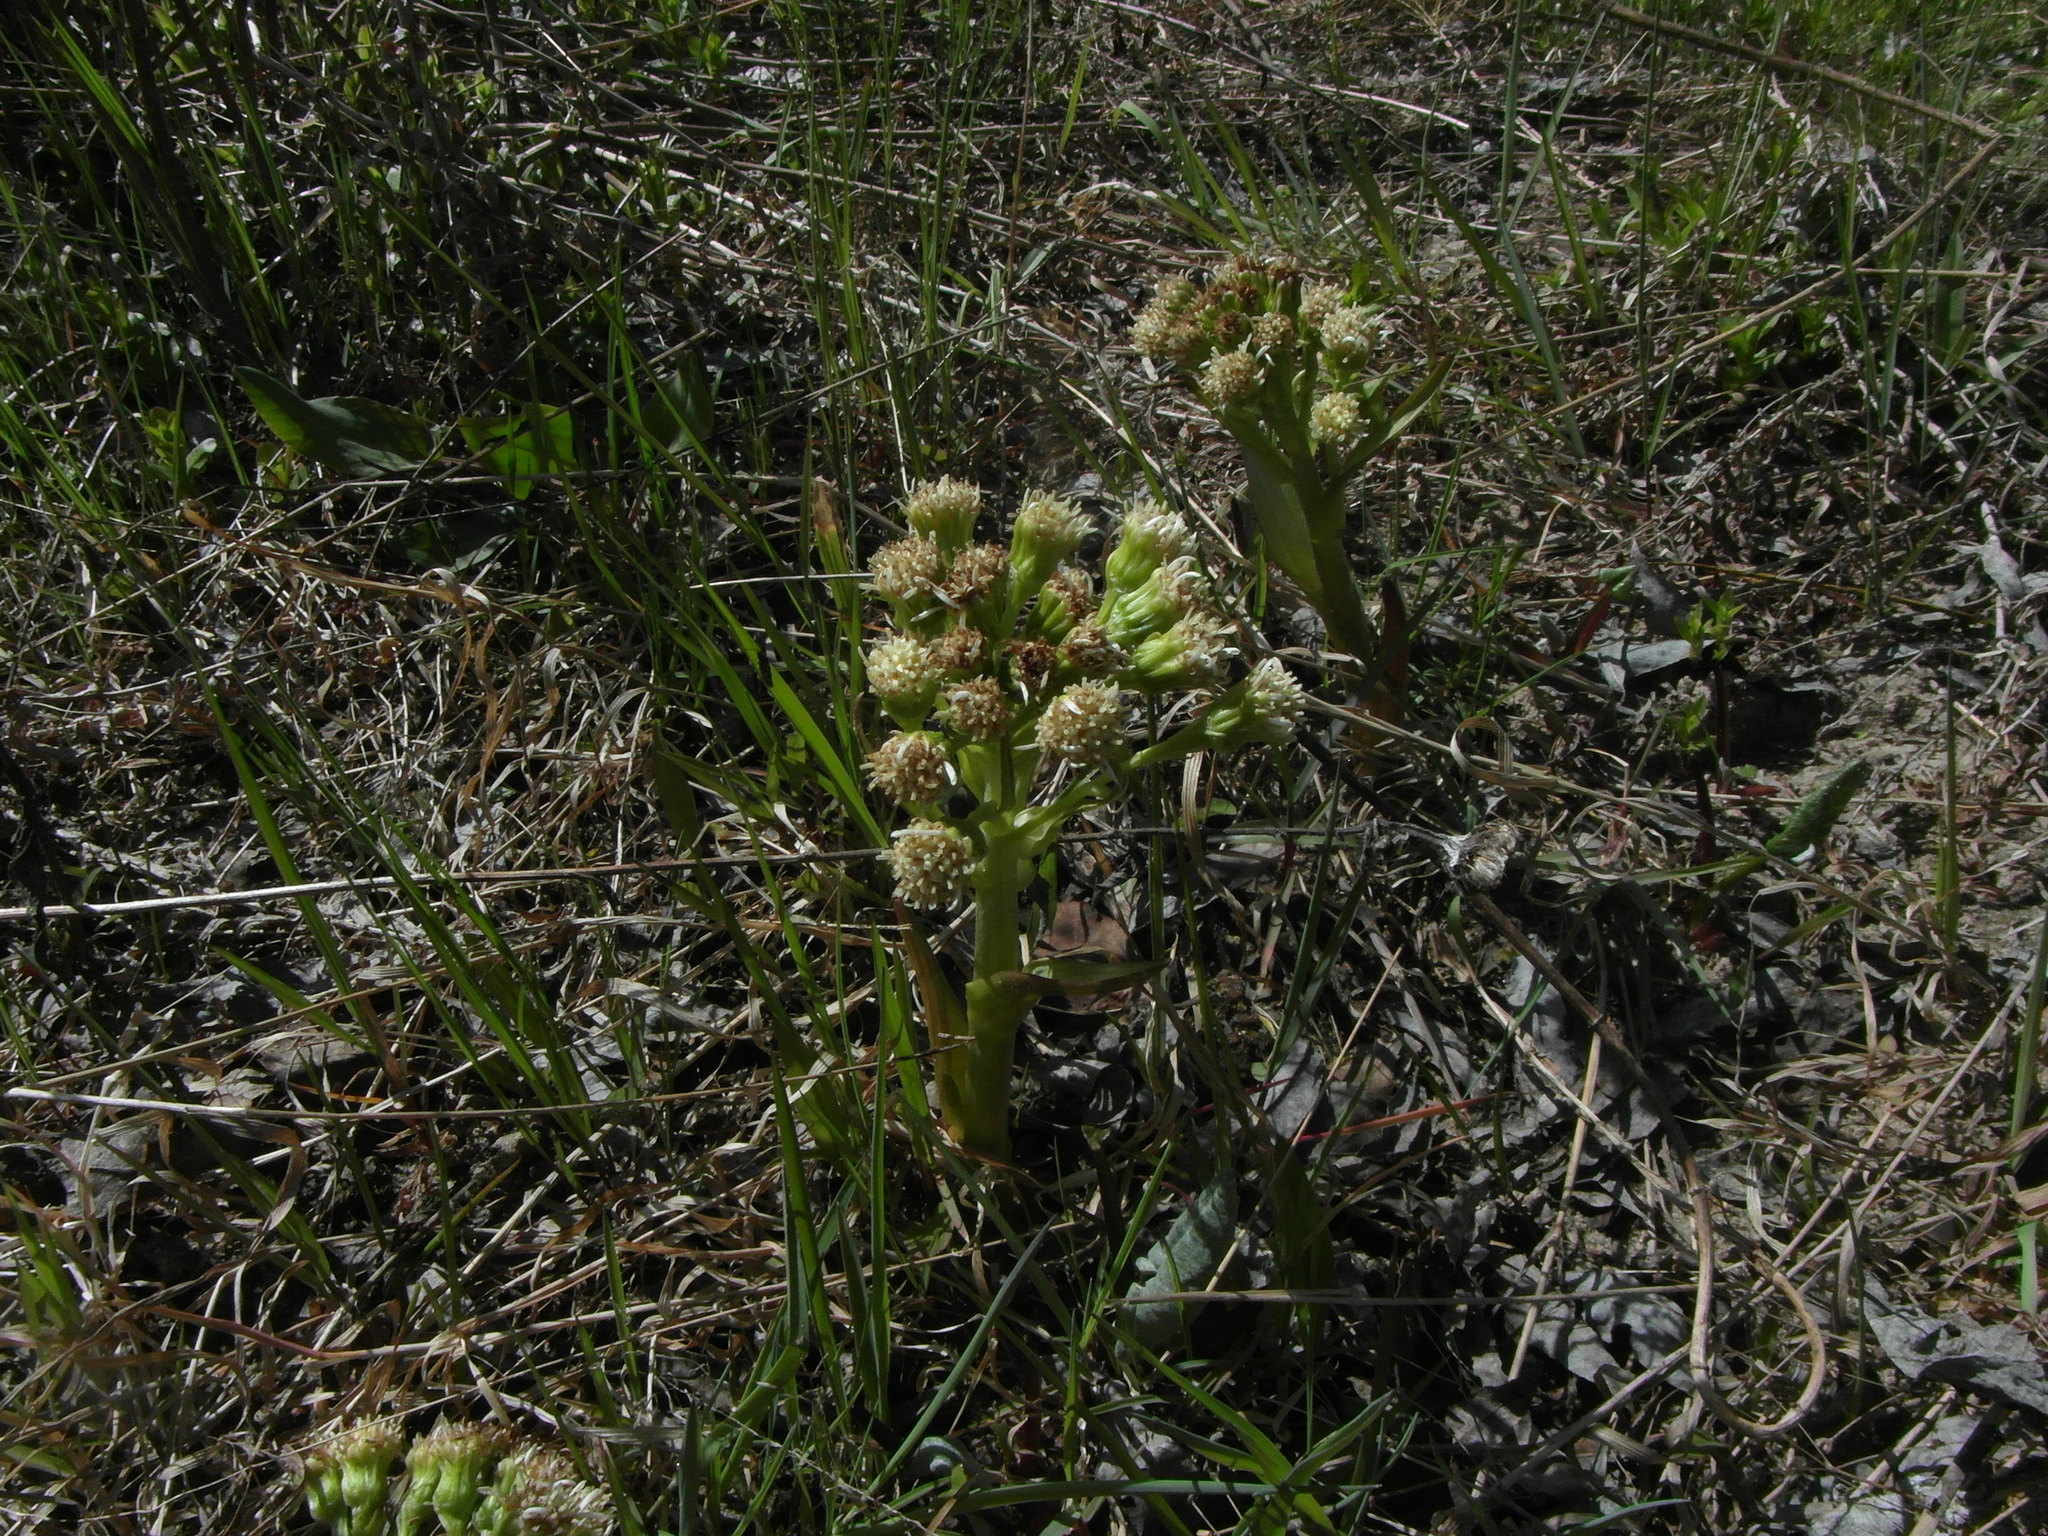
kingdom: Plantae
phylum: Tracheophyta
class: Magnoliopsida
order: Asterales
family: Asteraceae
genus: Petasites
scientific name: Petasites spurius
